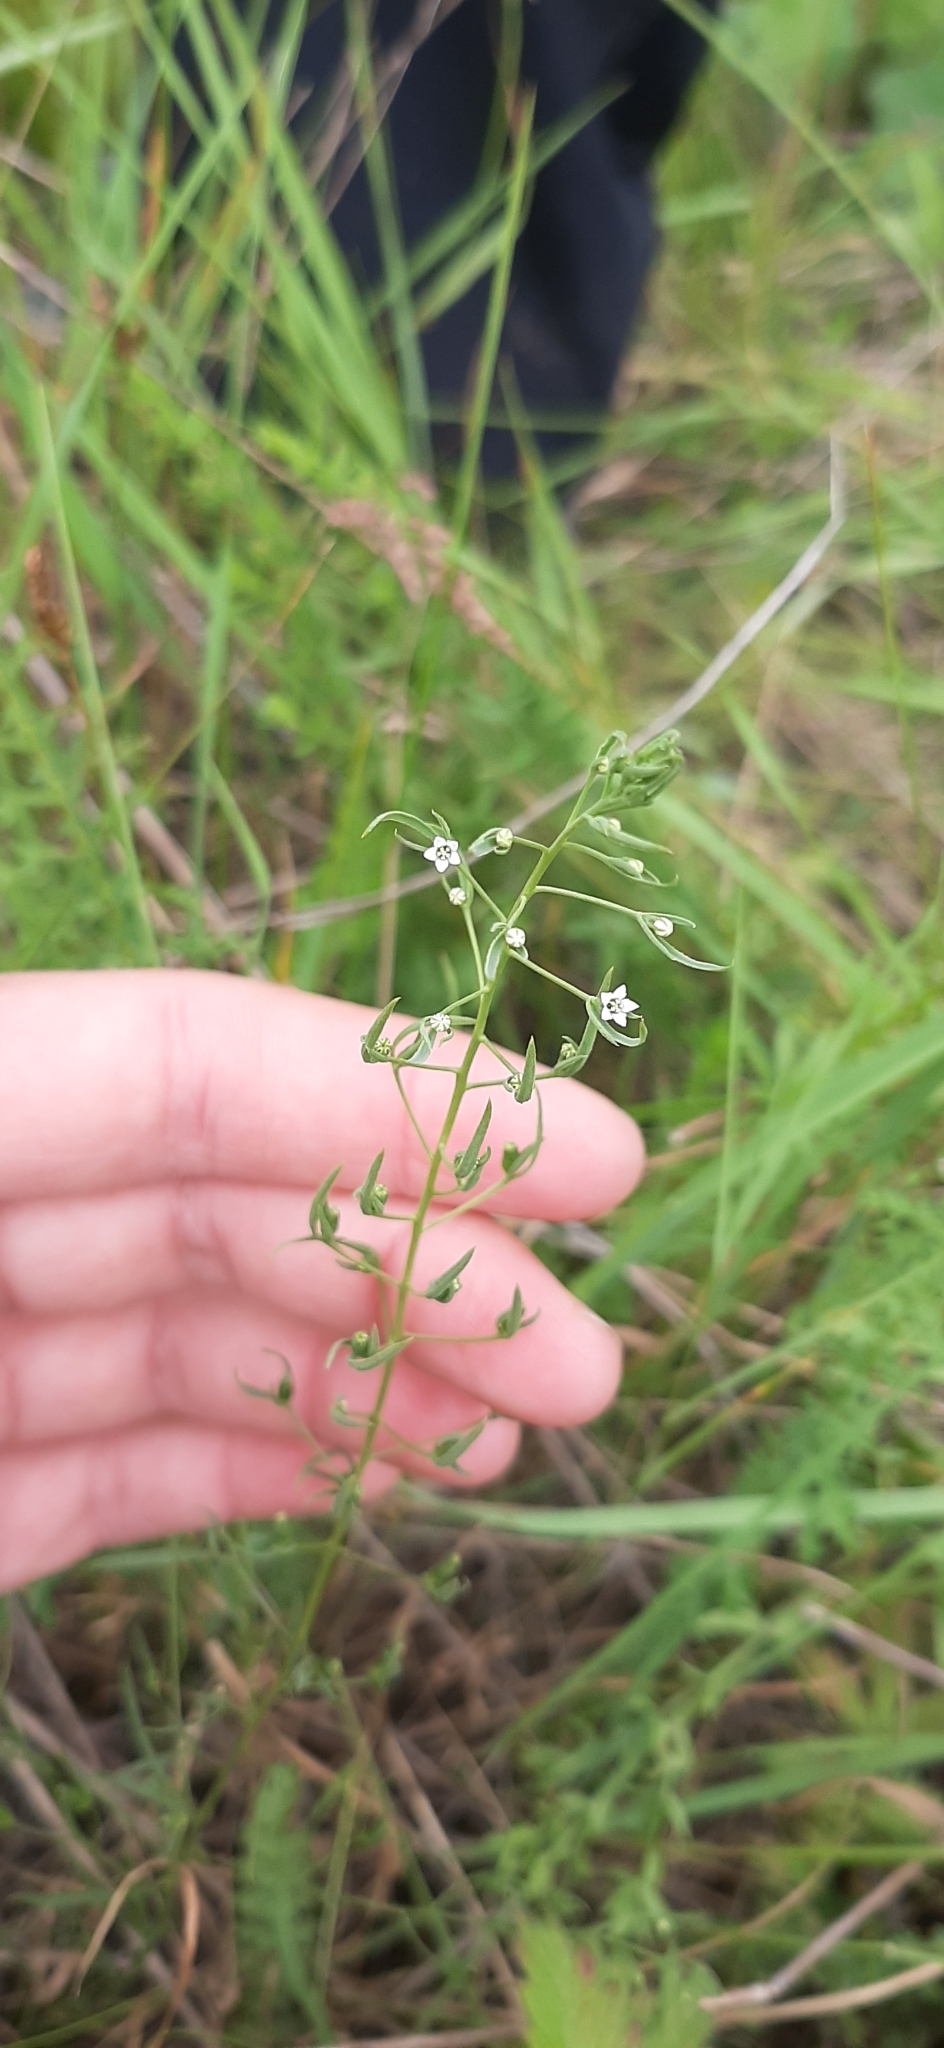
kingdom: Plantae
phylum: Tracheophyta
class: Magnoliopsida
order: Santalales
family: Thesiaceae
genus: Thesium
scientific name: Thesium ramosum
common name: Field thesium
